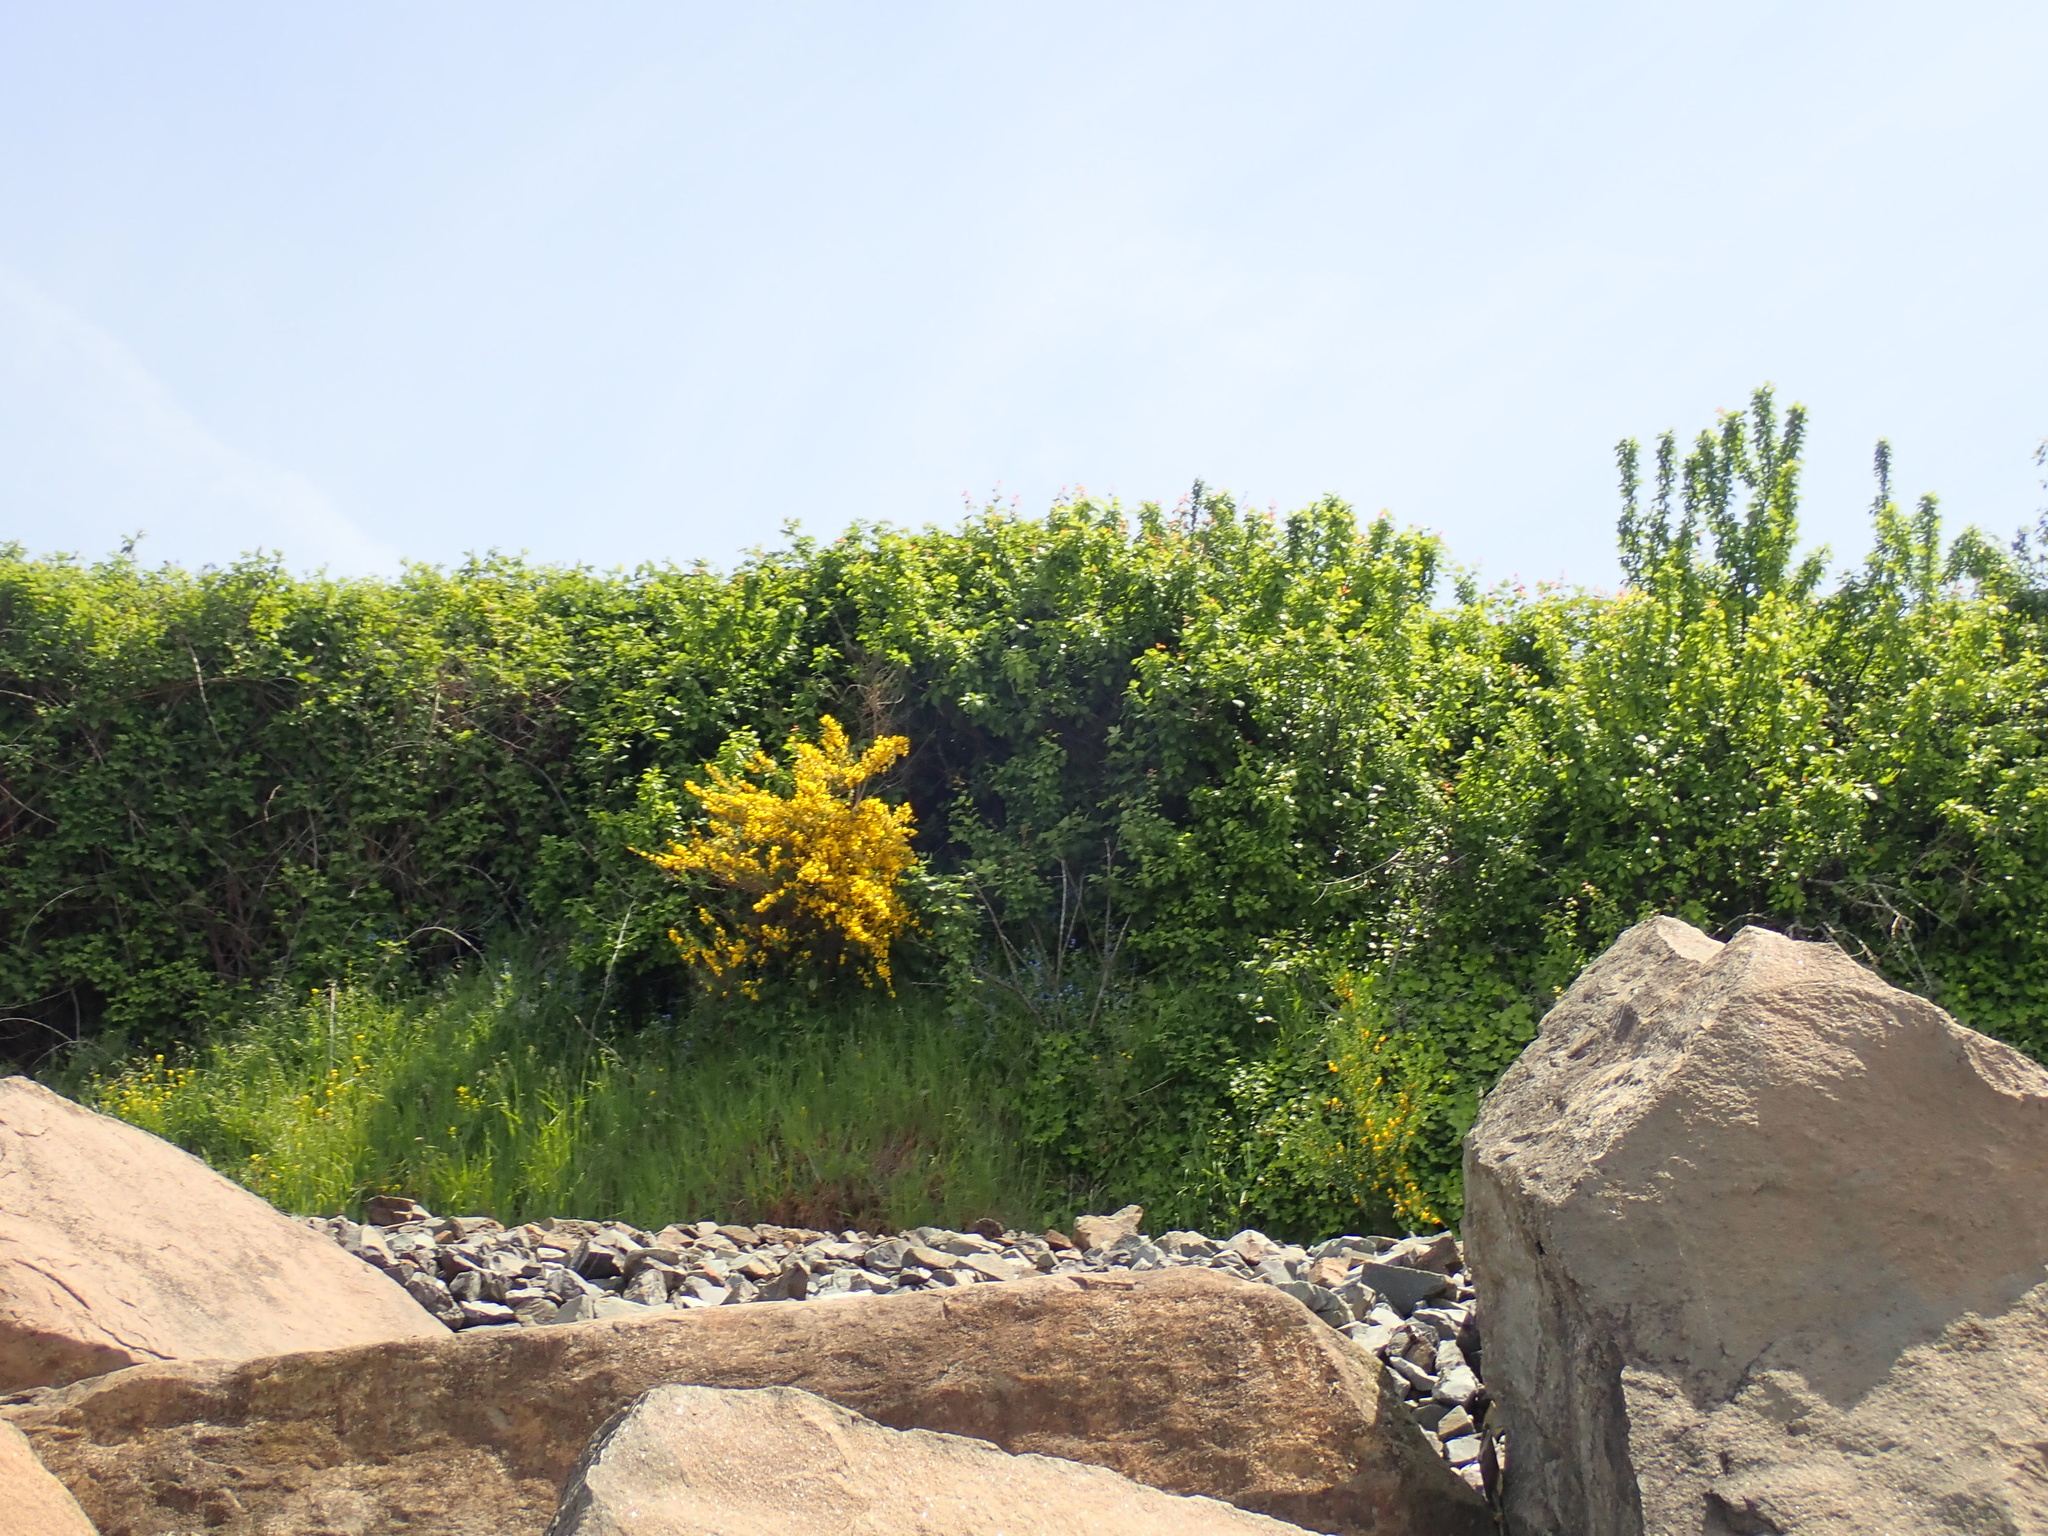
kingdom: Plantae
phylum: Tracheophyta
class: Magnoliopsida
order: Fabales
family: Fabaceae
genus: Cytisus
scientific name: Cytisus scoparius
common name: Scotch broom
